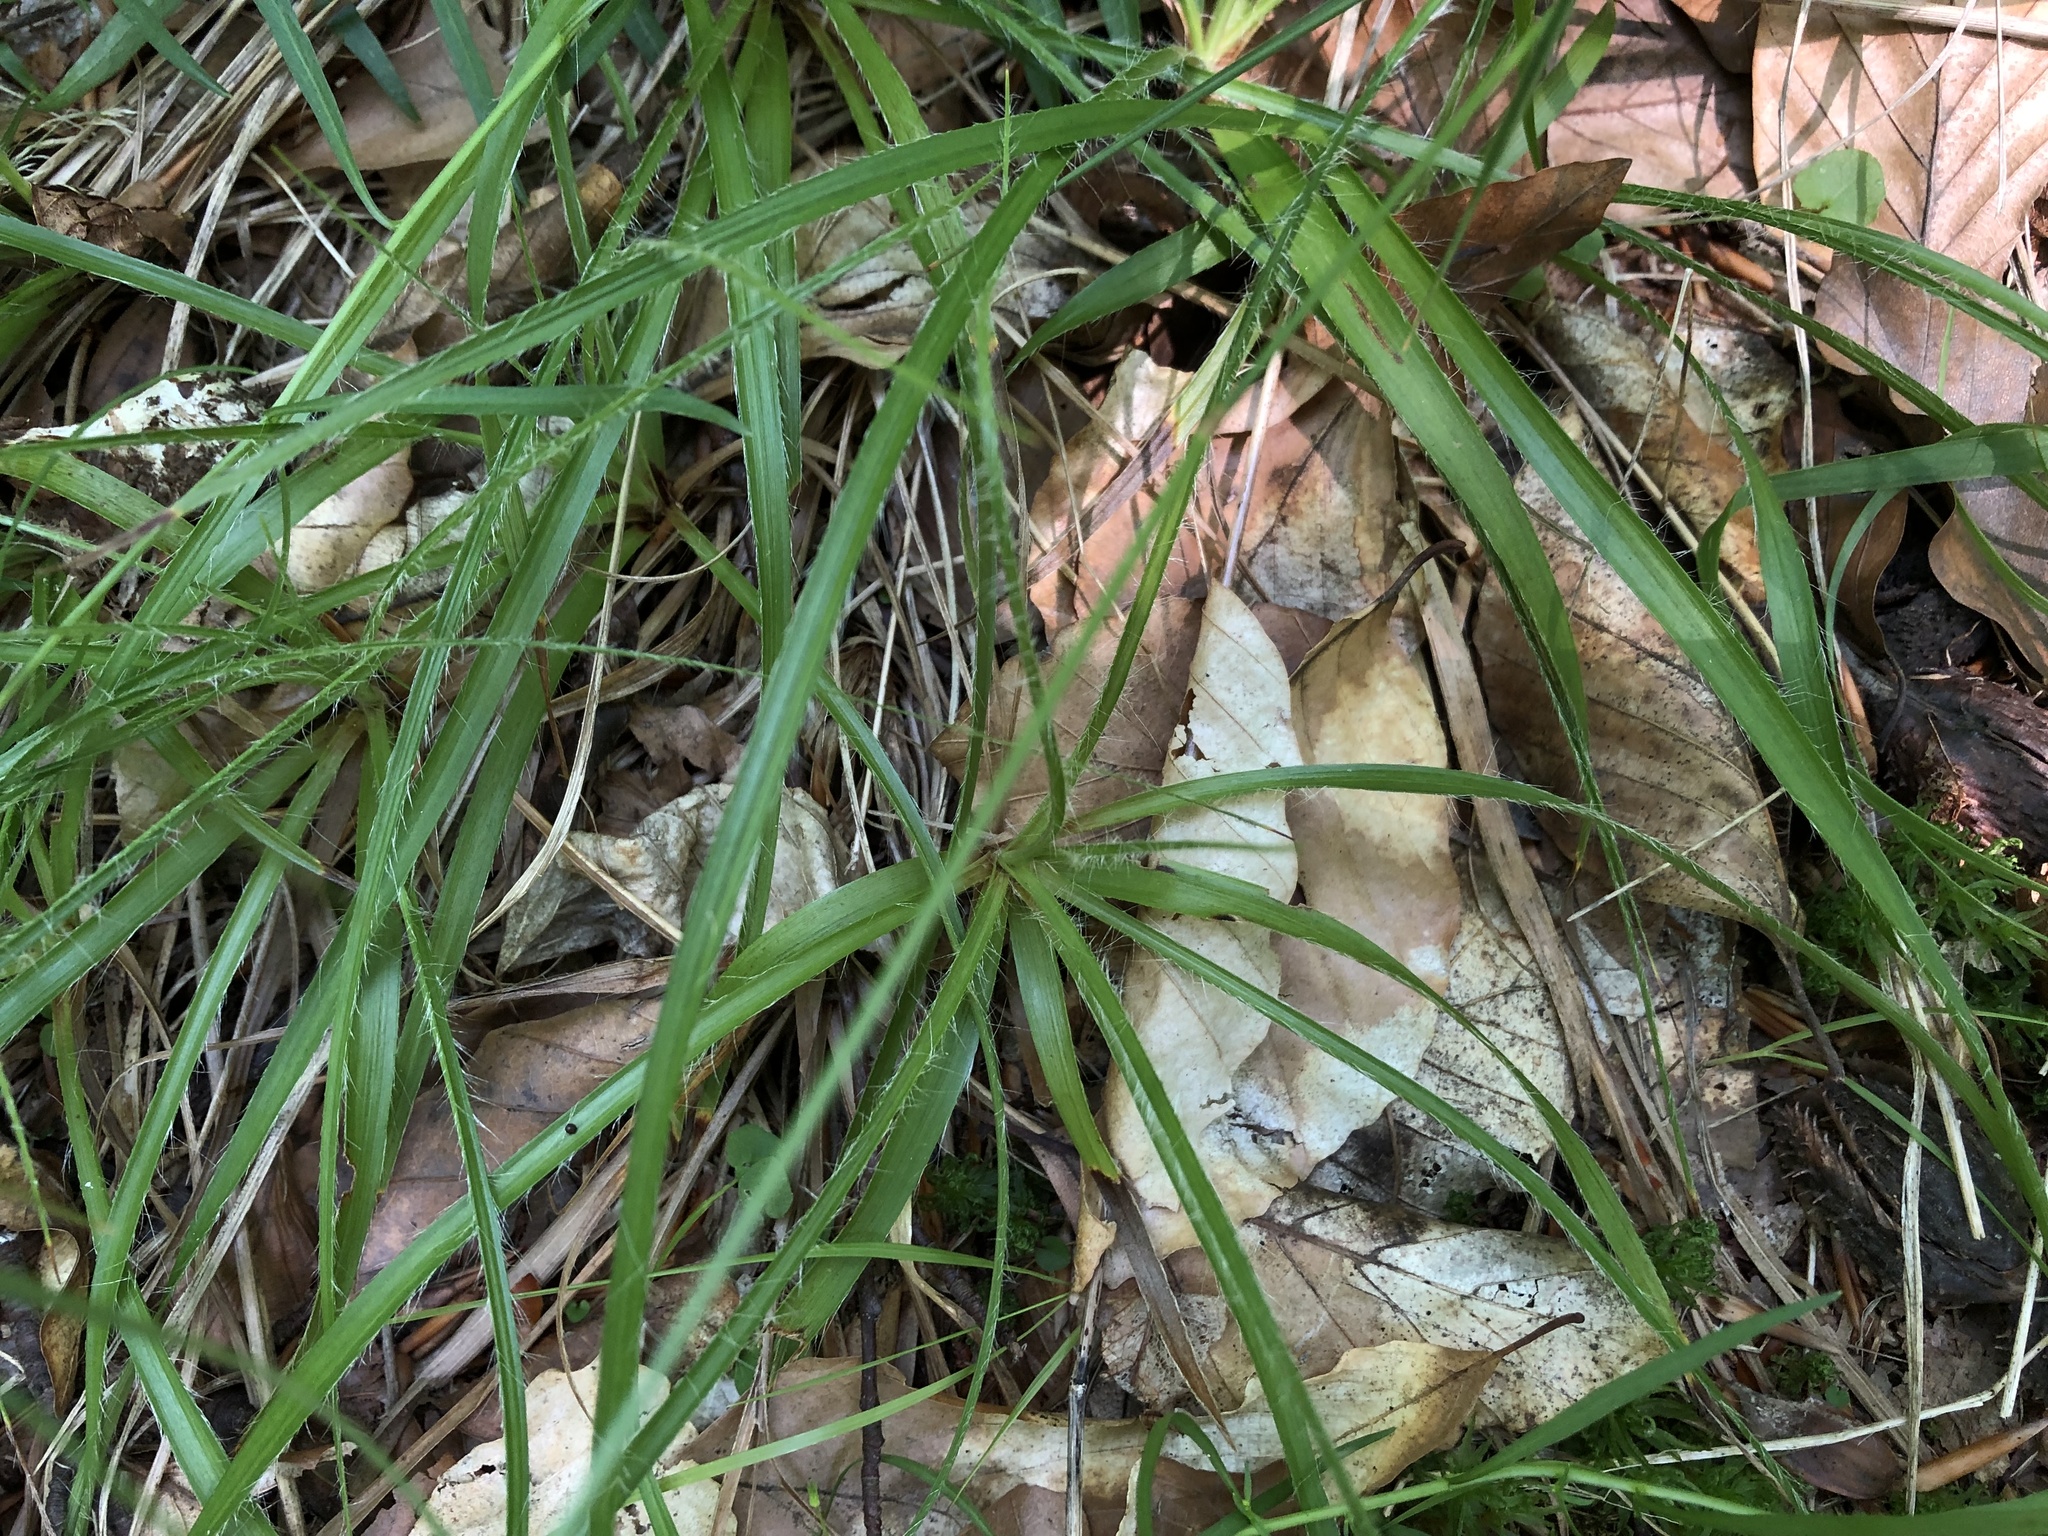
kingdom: Plantae
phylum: Tracheophyta
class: Liliopsida
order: Poales
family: Juncaceae
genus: Luzula
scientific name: Luzula luzuloides
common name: White wood-rush
